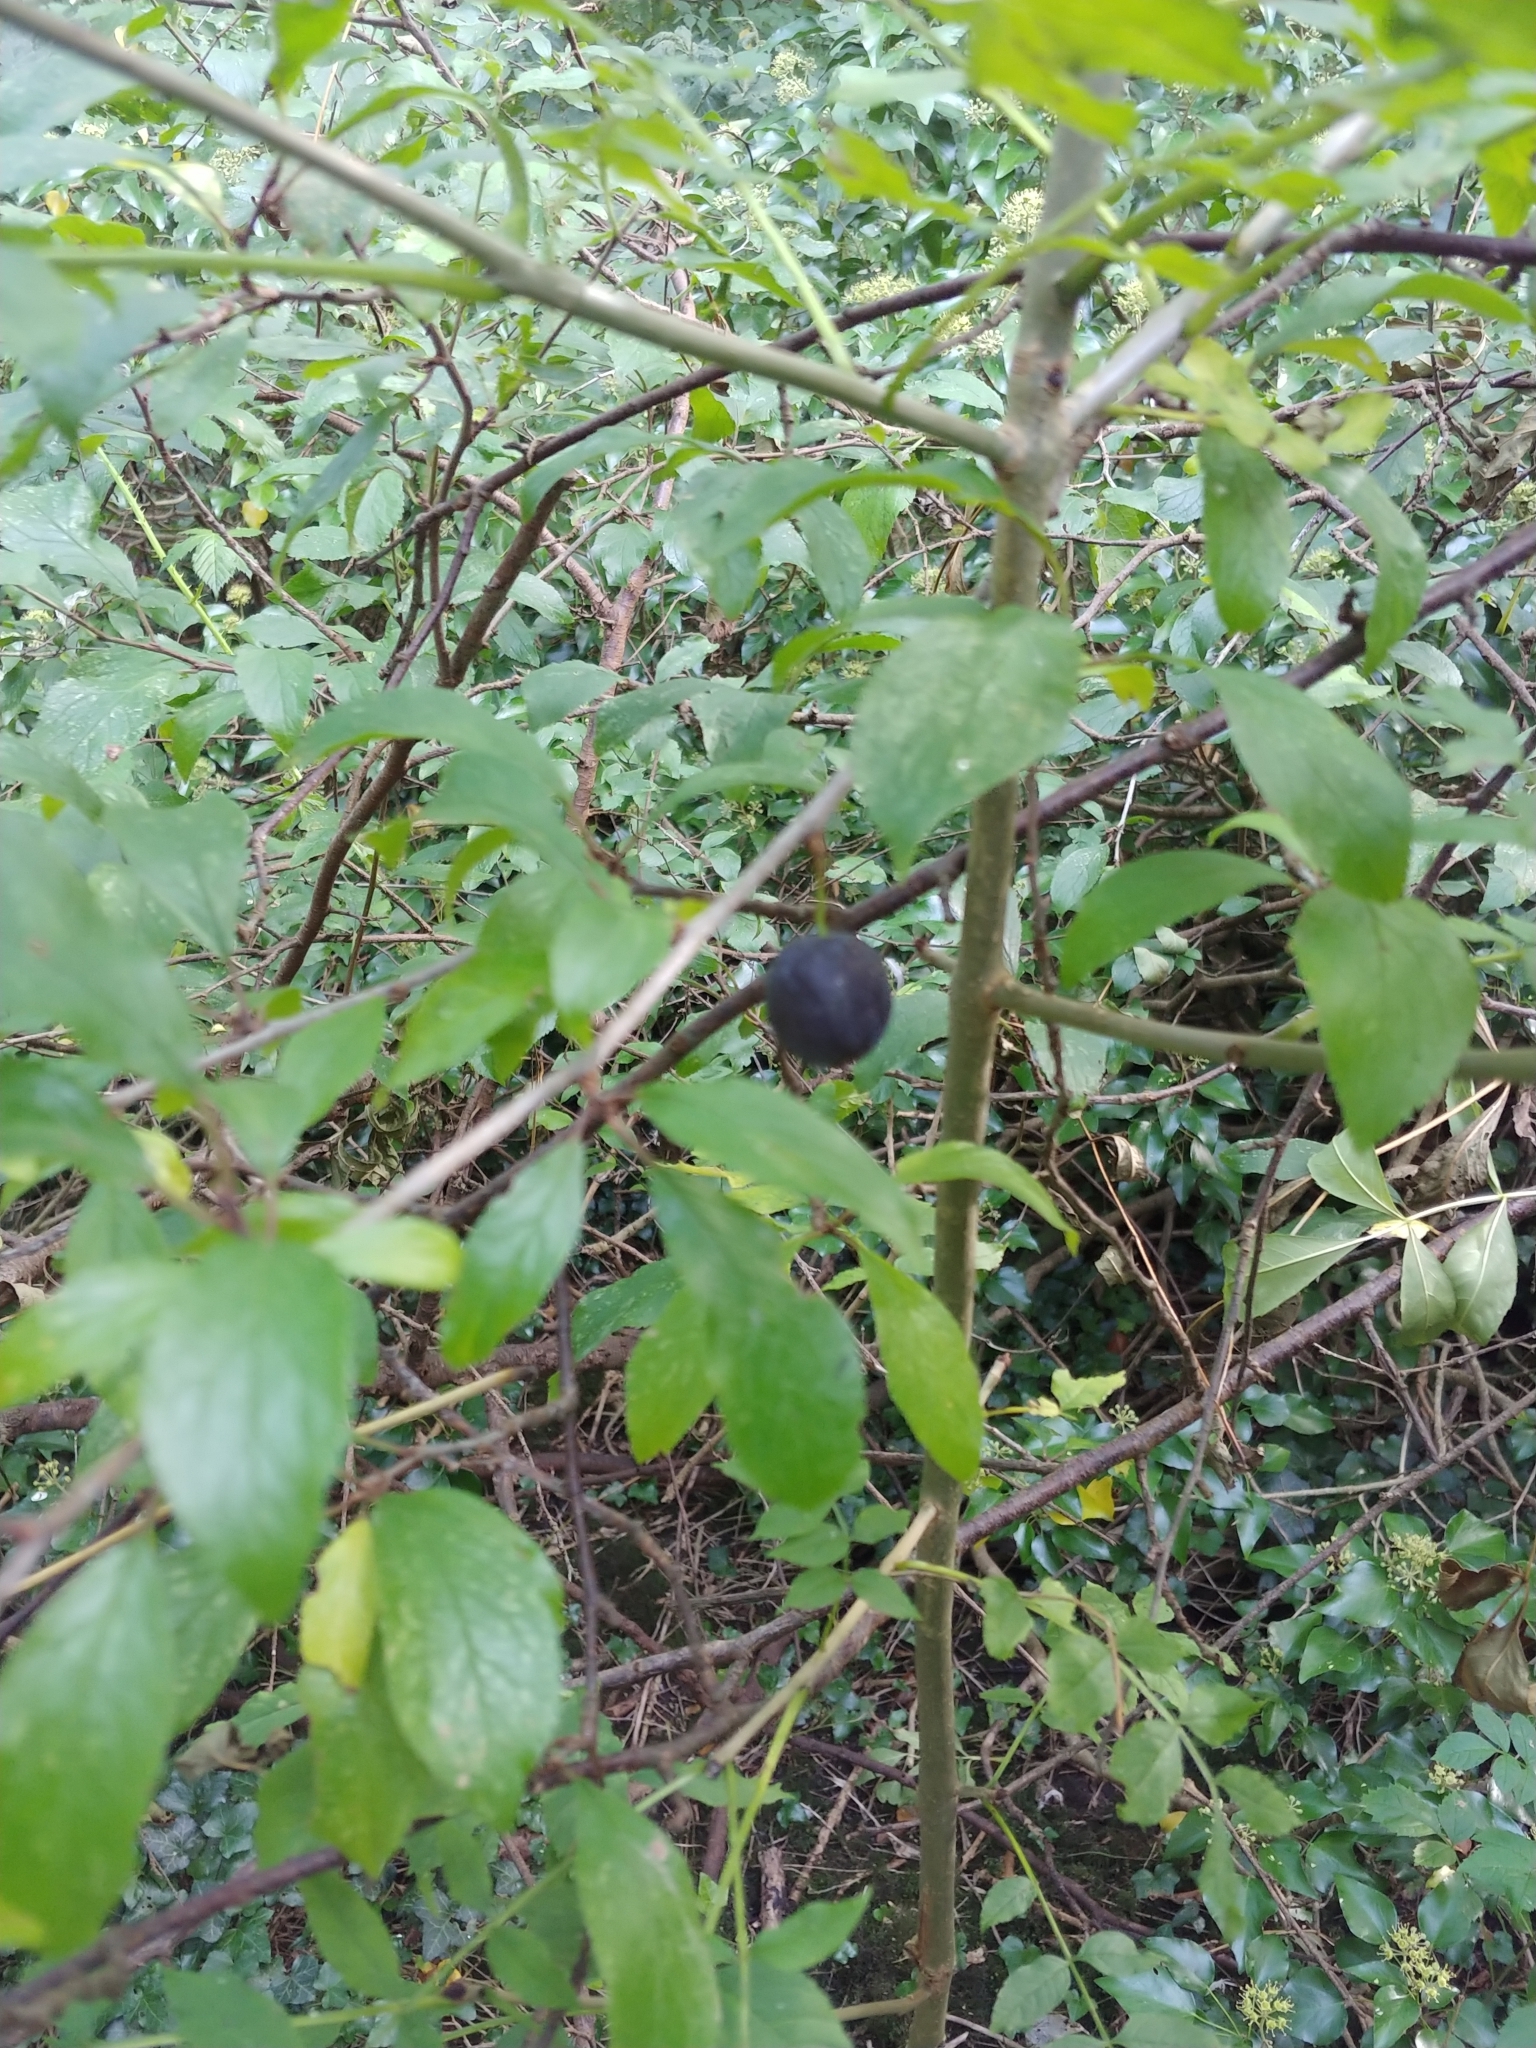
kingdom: Plantae
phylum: Tracheophyta
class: Magnoliopsida
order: Rosales
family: Rosaceae
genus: Prunus
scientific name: Prunus spinosa
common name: Blackthorn
